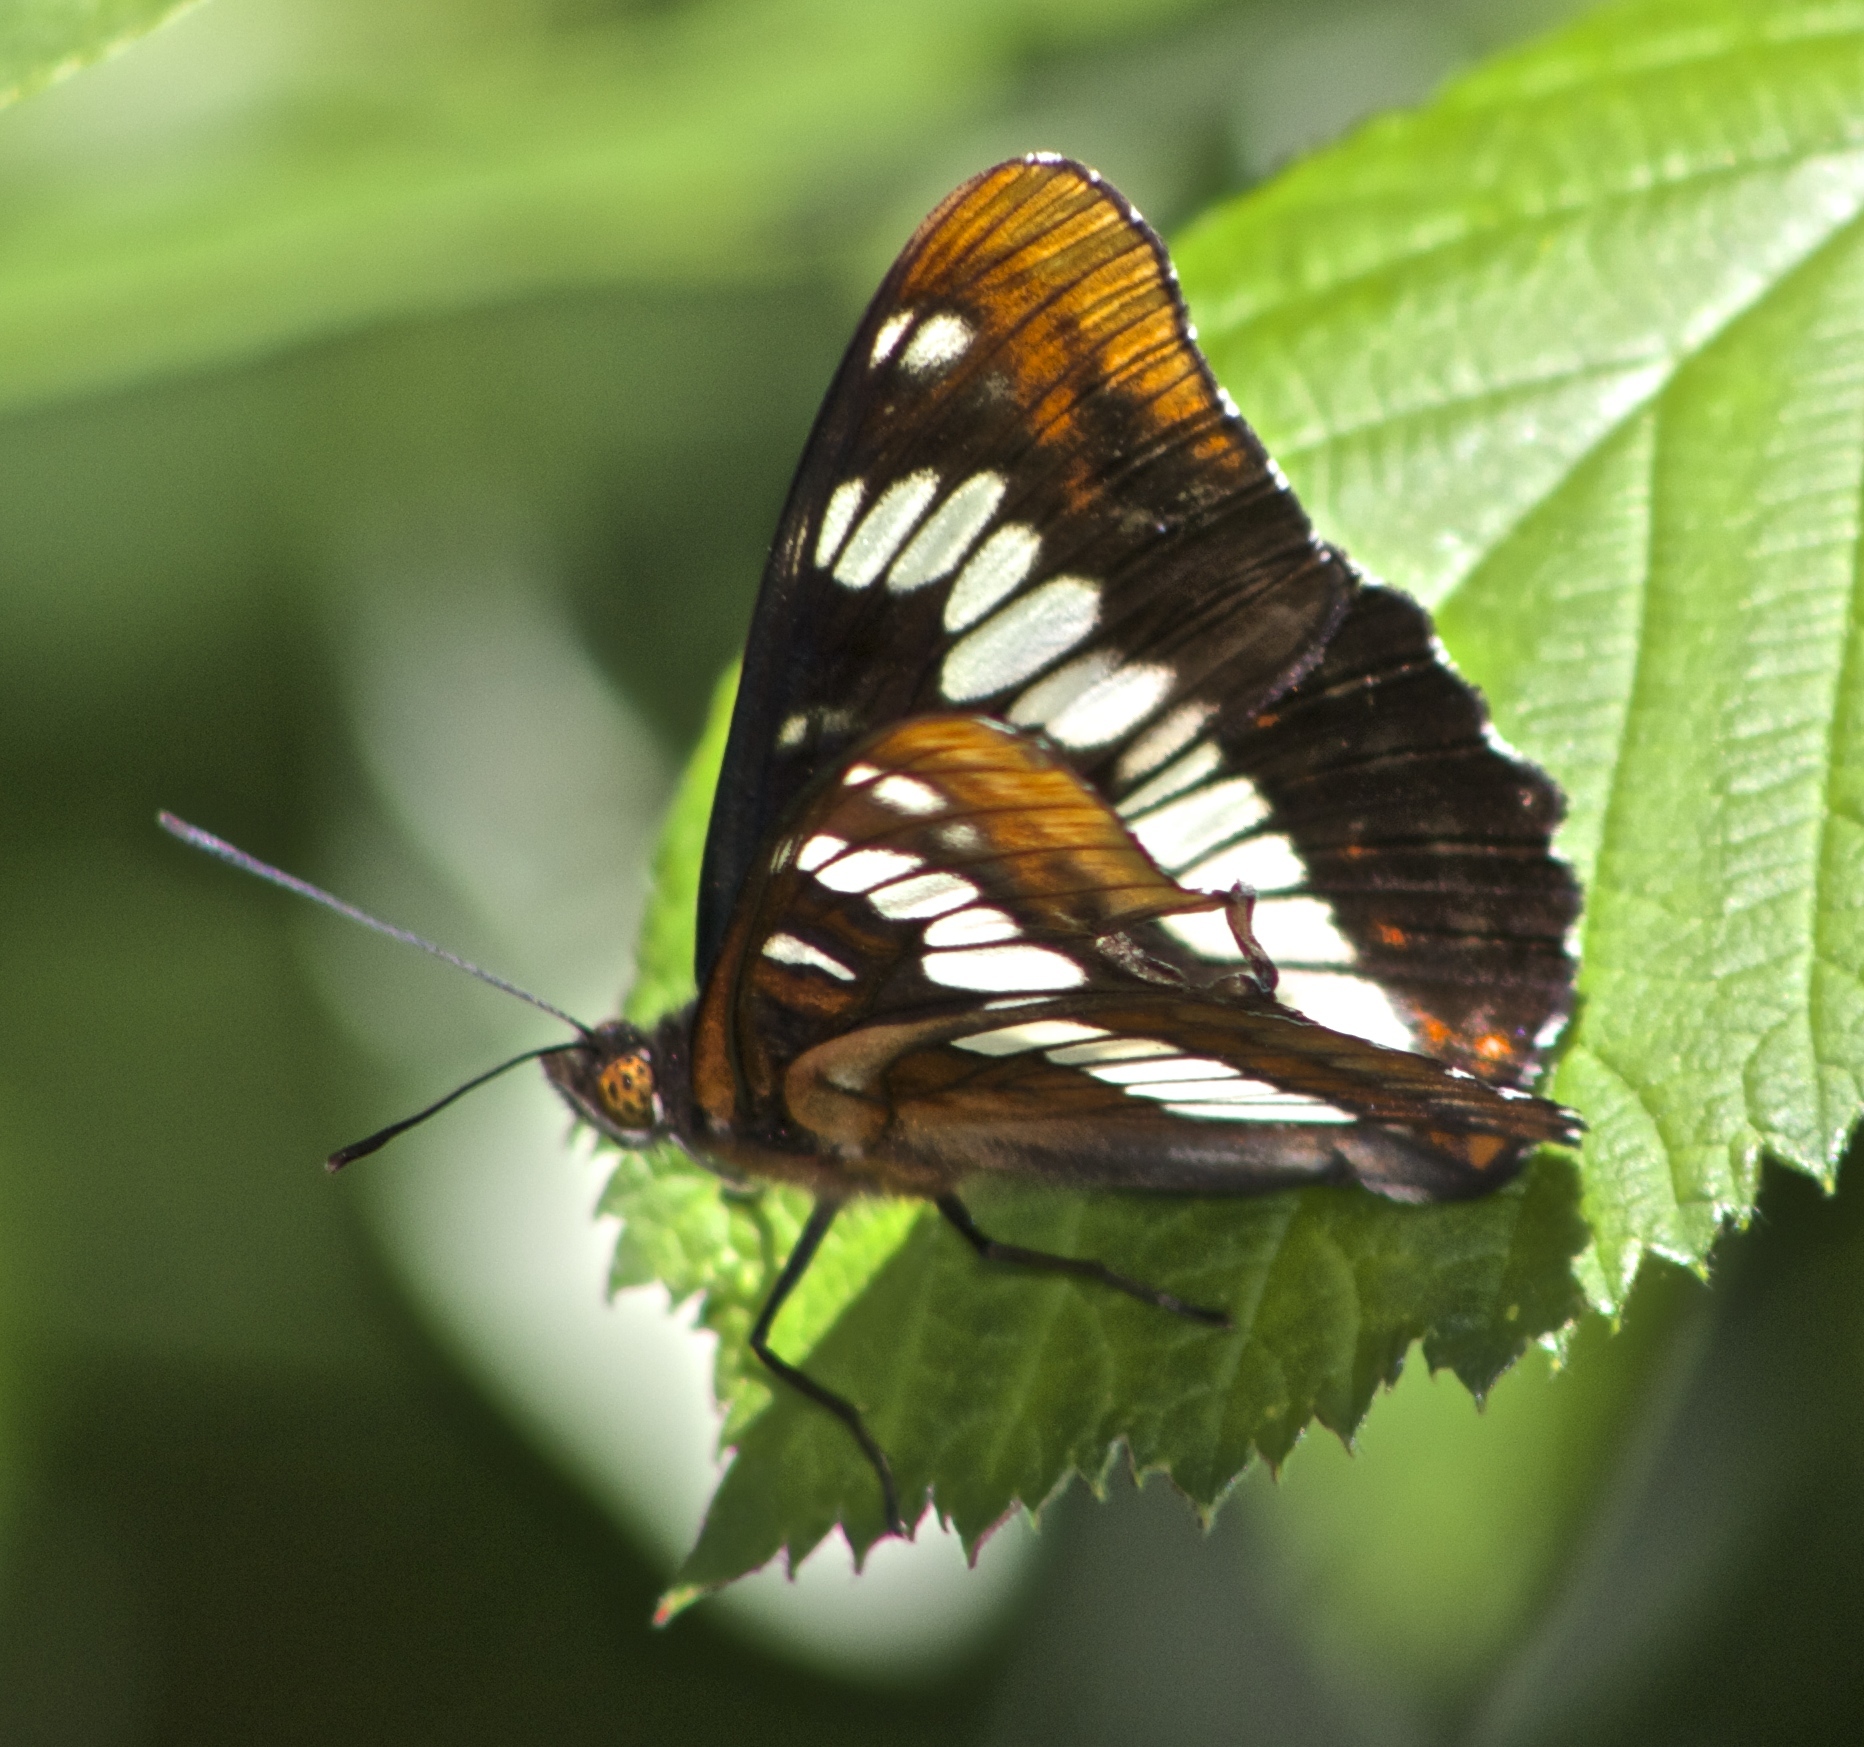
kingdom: Animalia
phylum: Arthropoda
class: Insecta
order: Lepidoptera
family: Nymphalidae
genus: Limenitis
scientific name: Limenitis lorquini
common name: Lorquin's admiral
